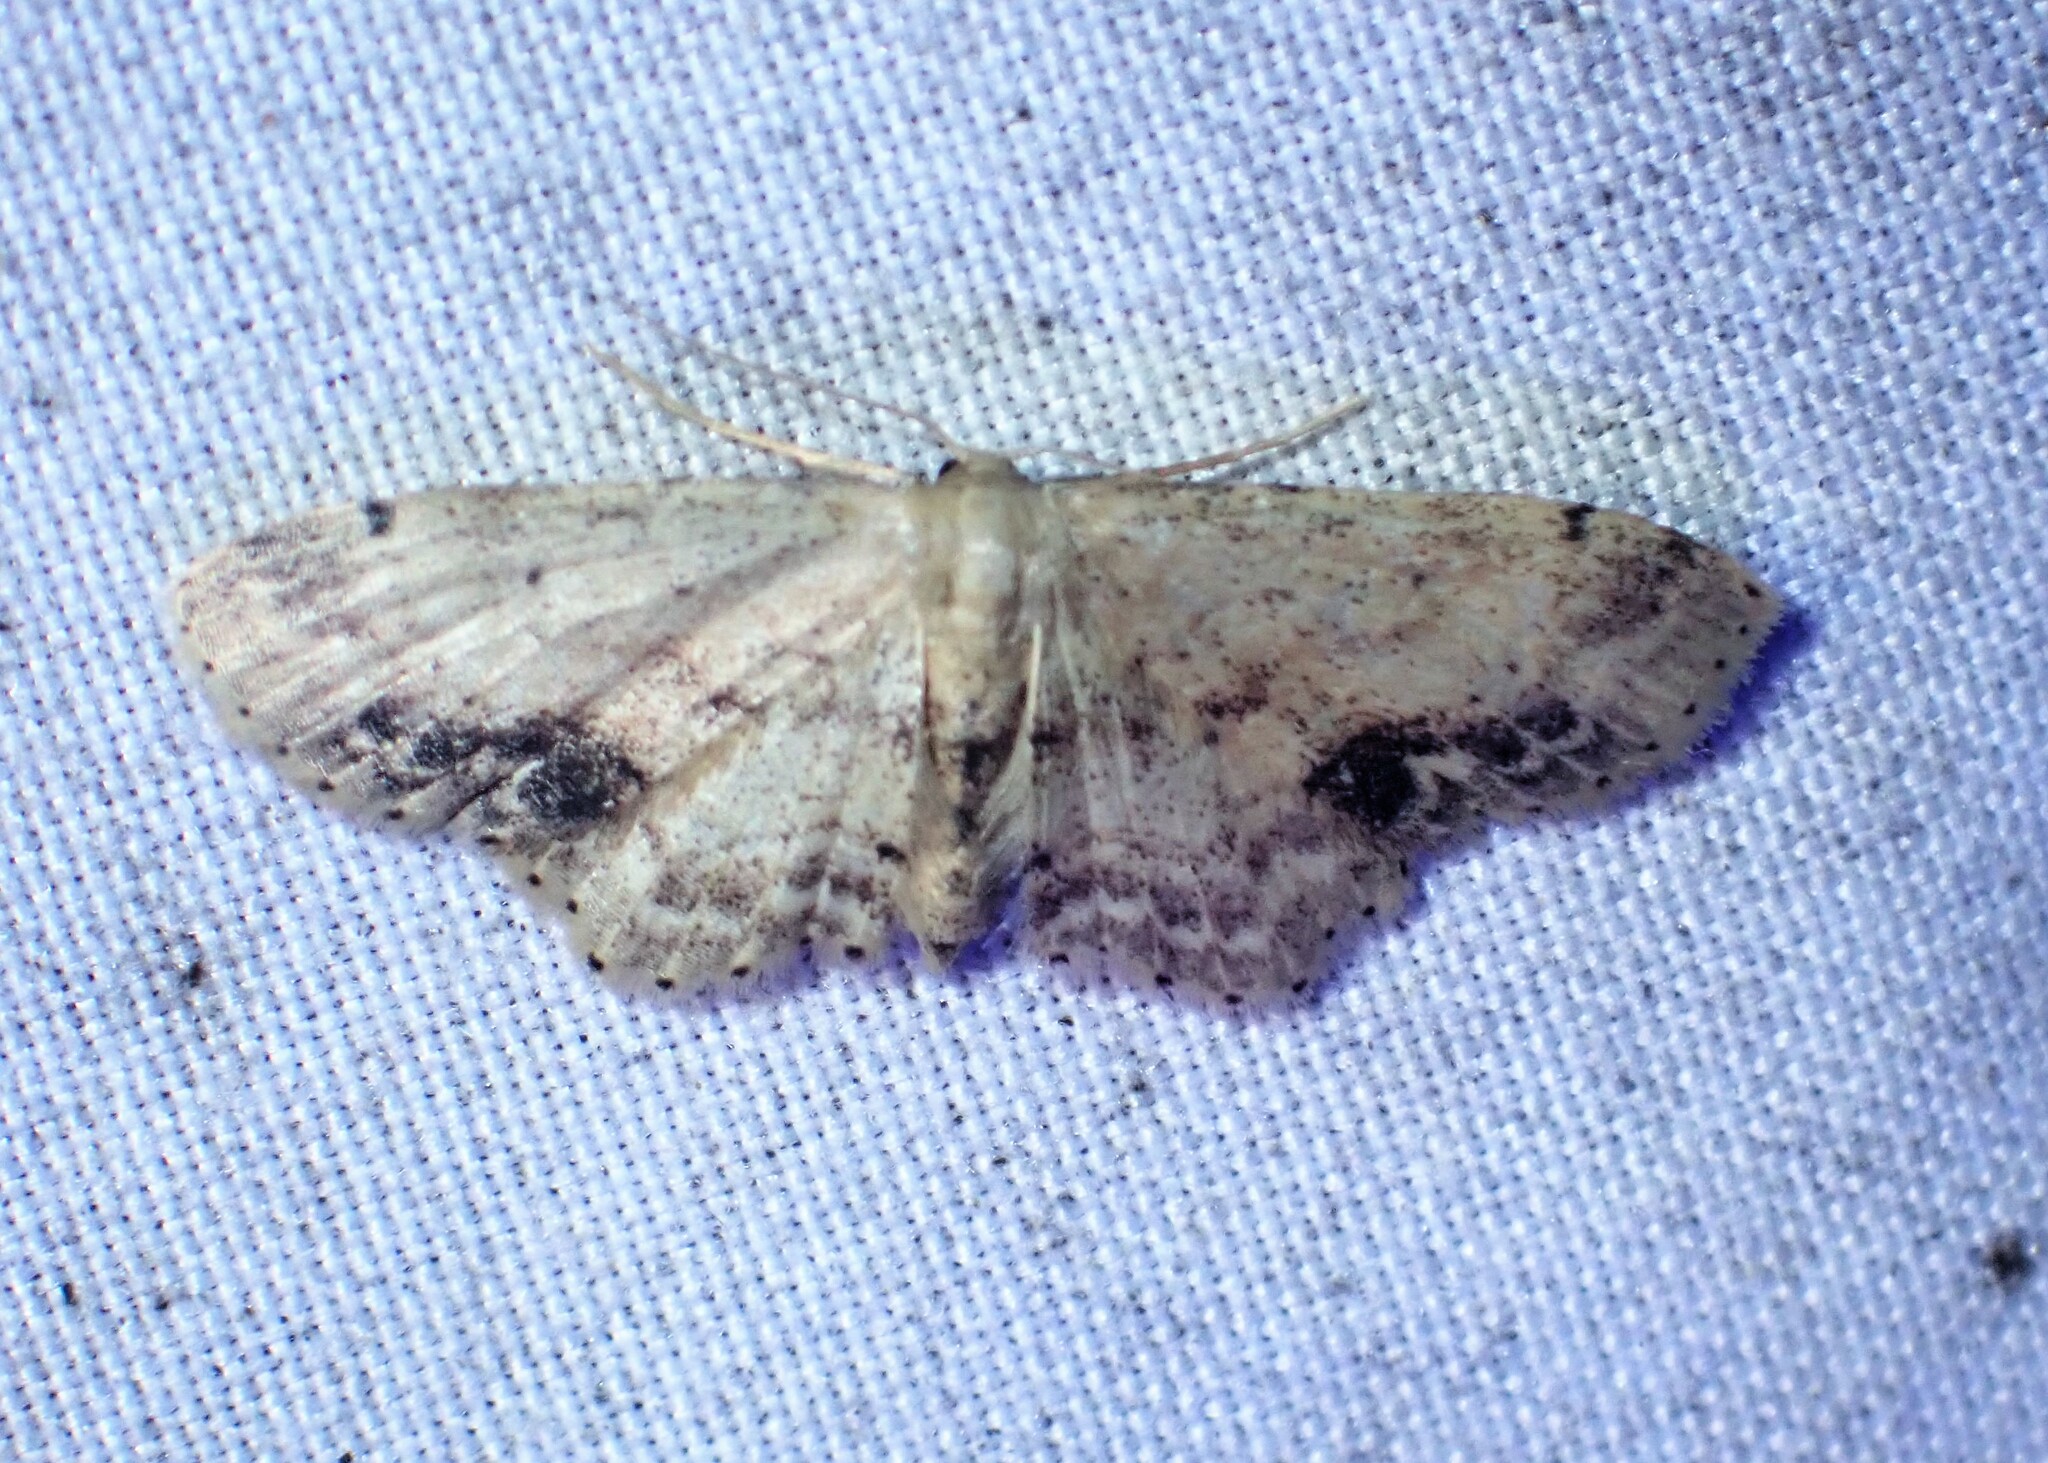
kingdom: Animalia
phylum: Arthropoda
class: Insecta
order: Lepidoptera
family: Geometridae
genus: Idaea
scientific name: Idaea dimidiata
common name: Single-dotted wave
